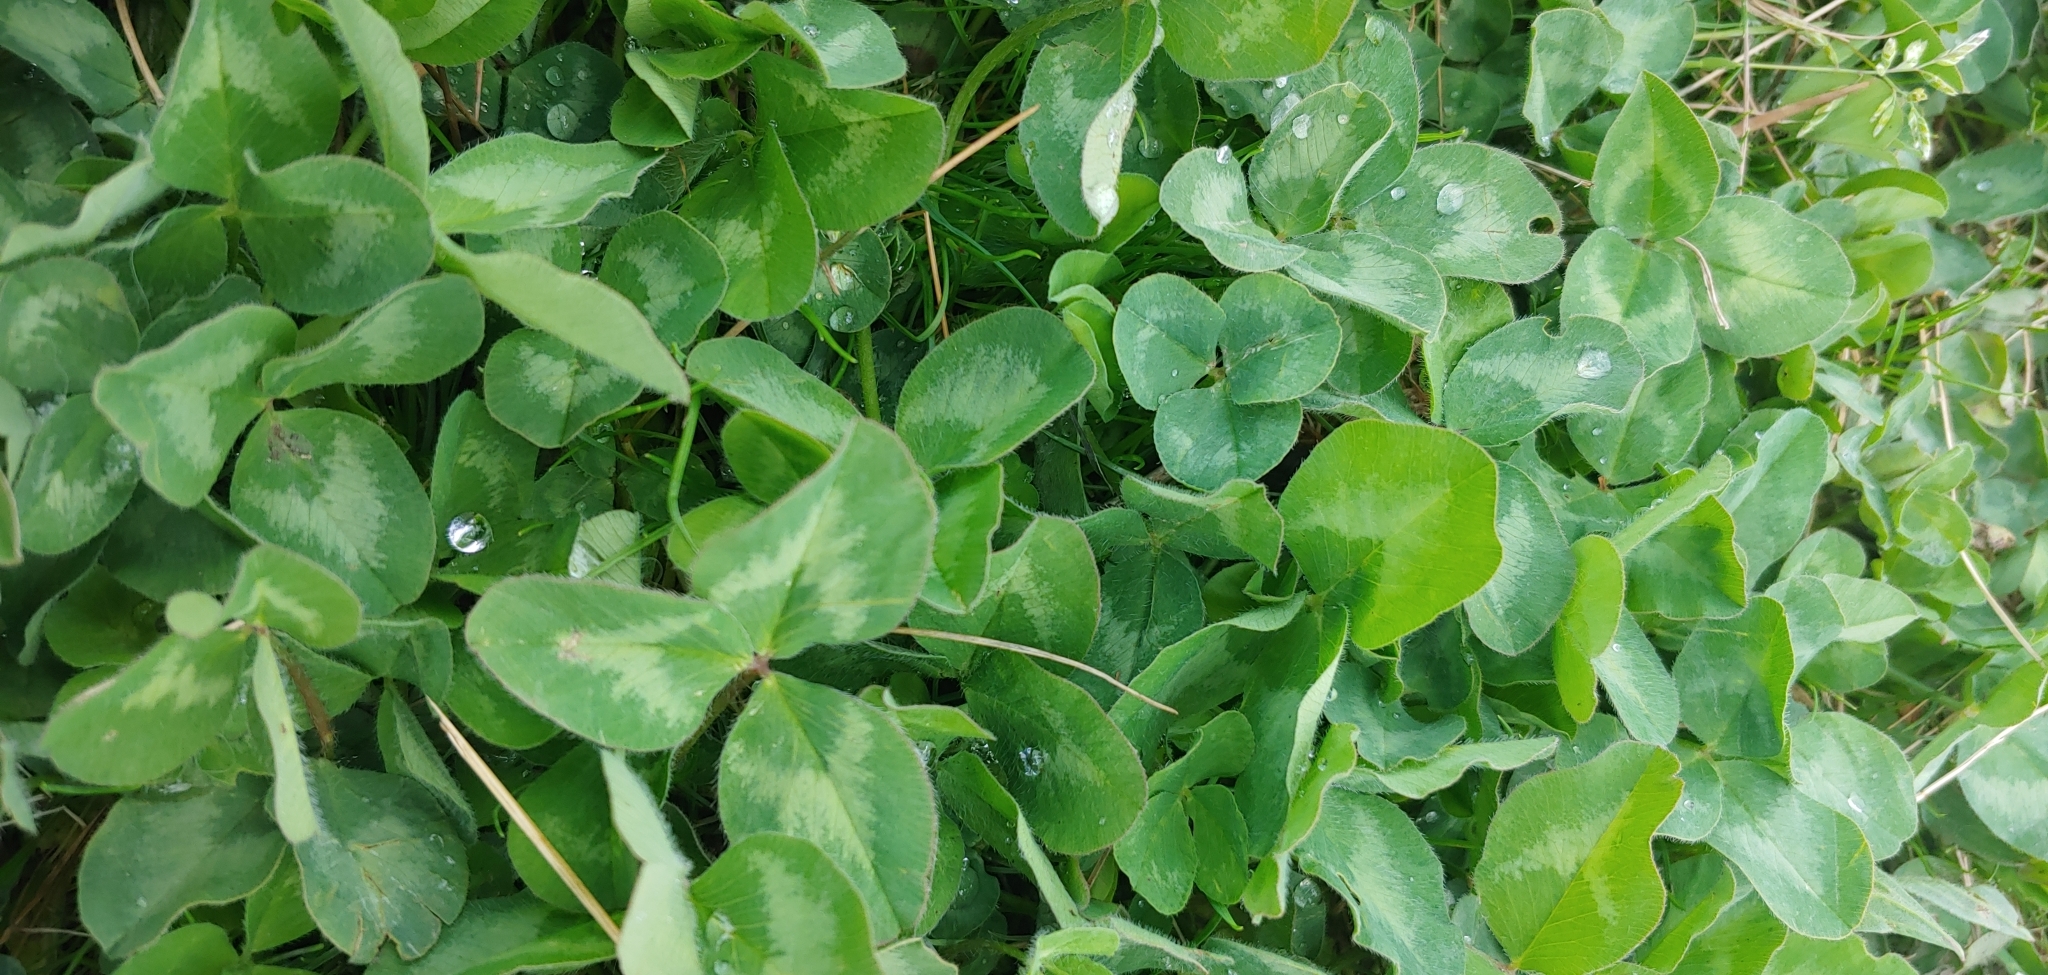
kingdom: Plantae
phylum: Tracheophyta
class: Magnoliopsida
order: Fabales
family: Fabaceae
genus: Trifolium
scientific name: Trifolium pratense
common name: Red clover
